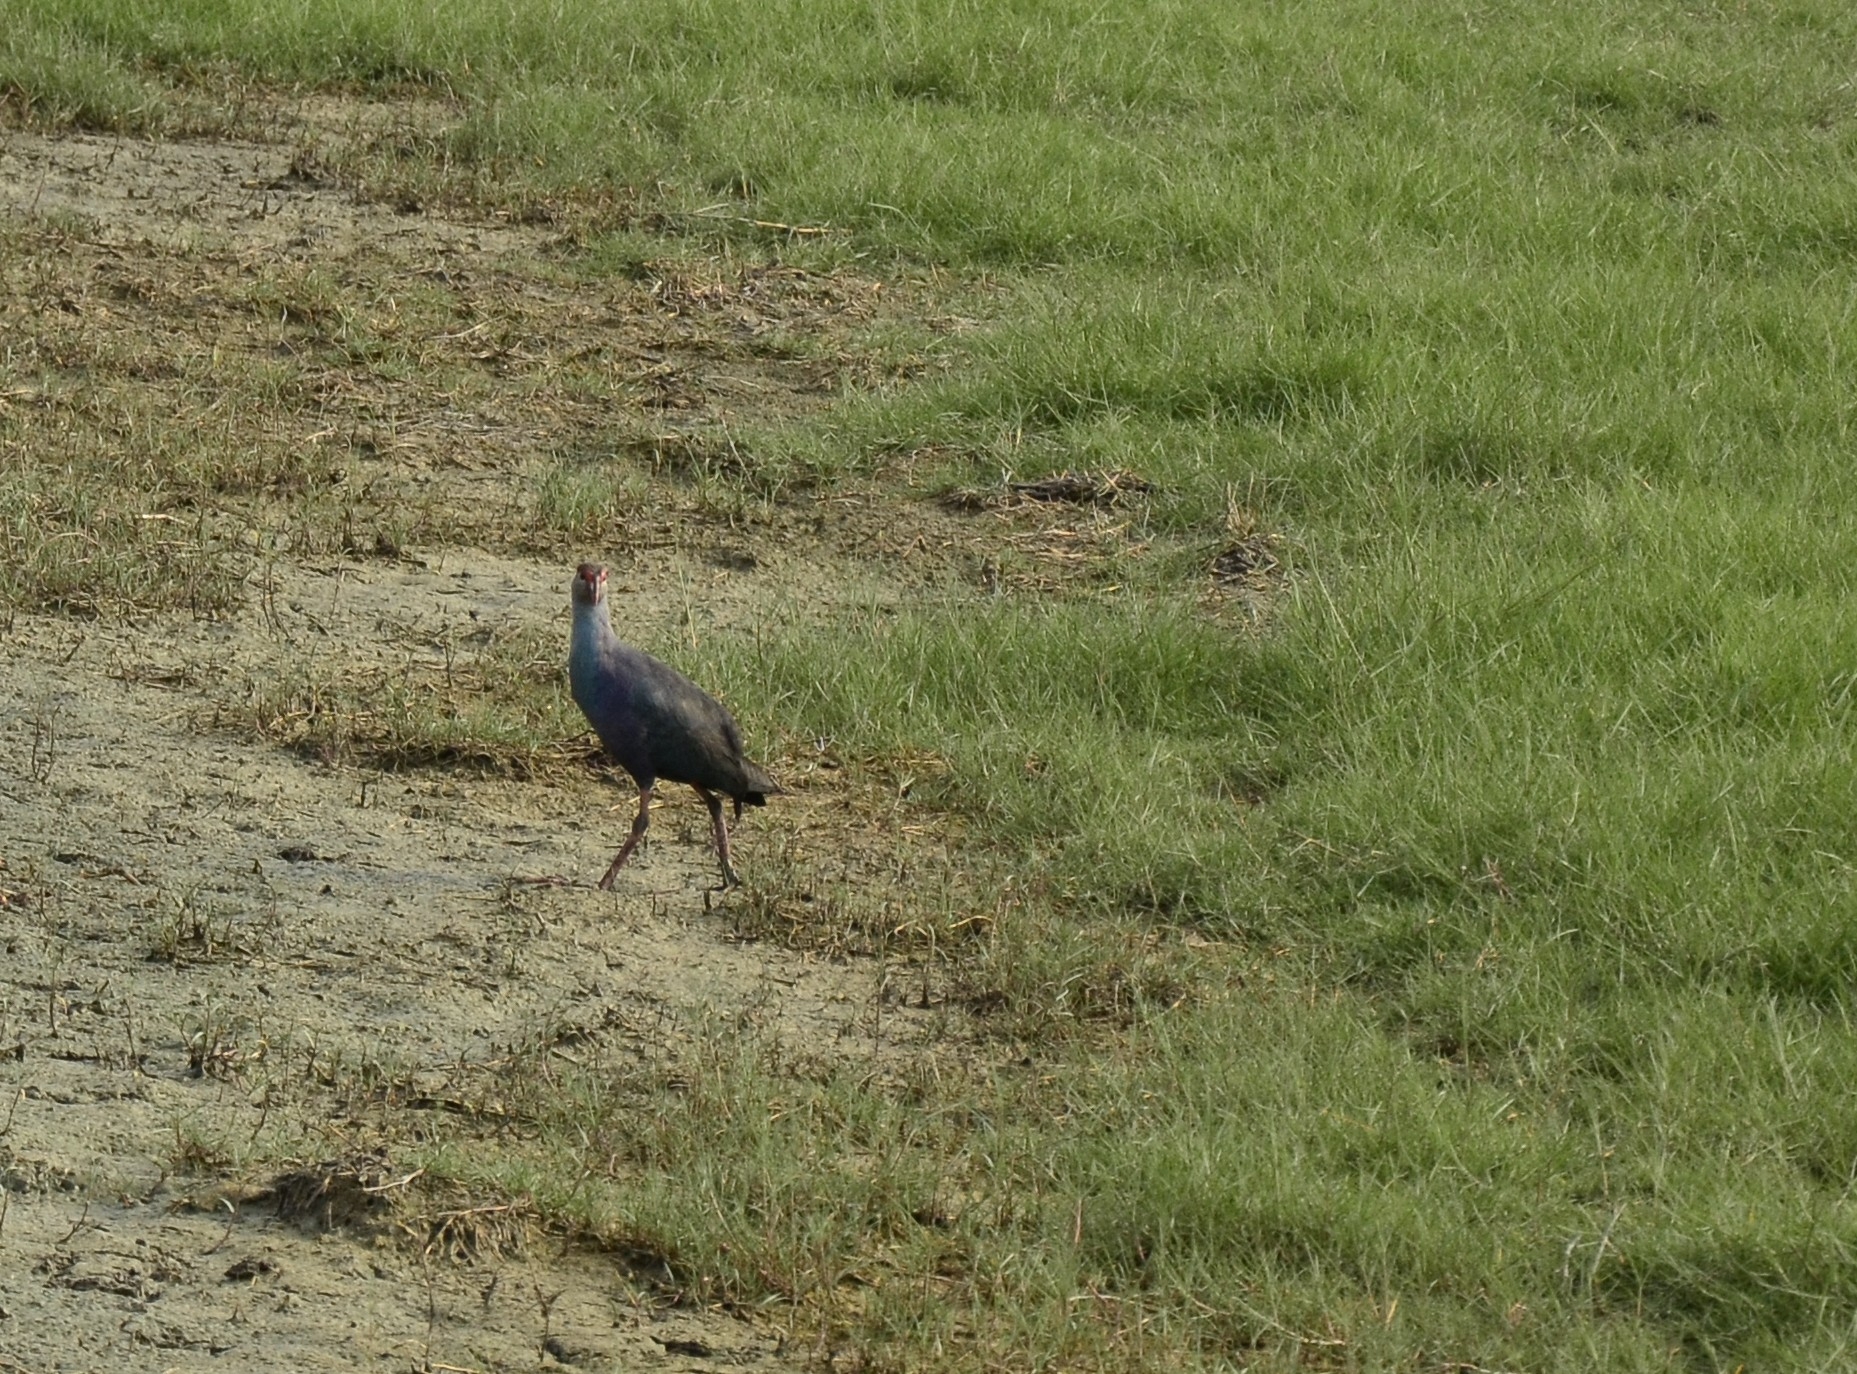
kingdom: Animalia
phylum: Chordata
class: Aves
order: Gruiformes
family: Rallidae
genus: Porphyrio
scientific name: Porphyrio porphyrio
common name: Purple swamphen
